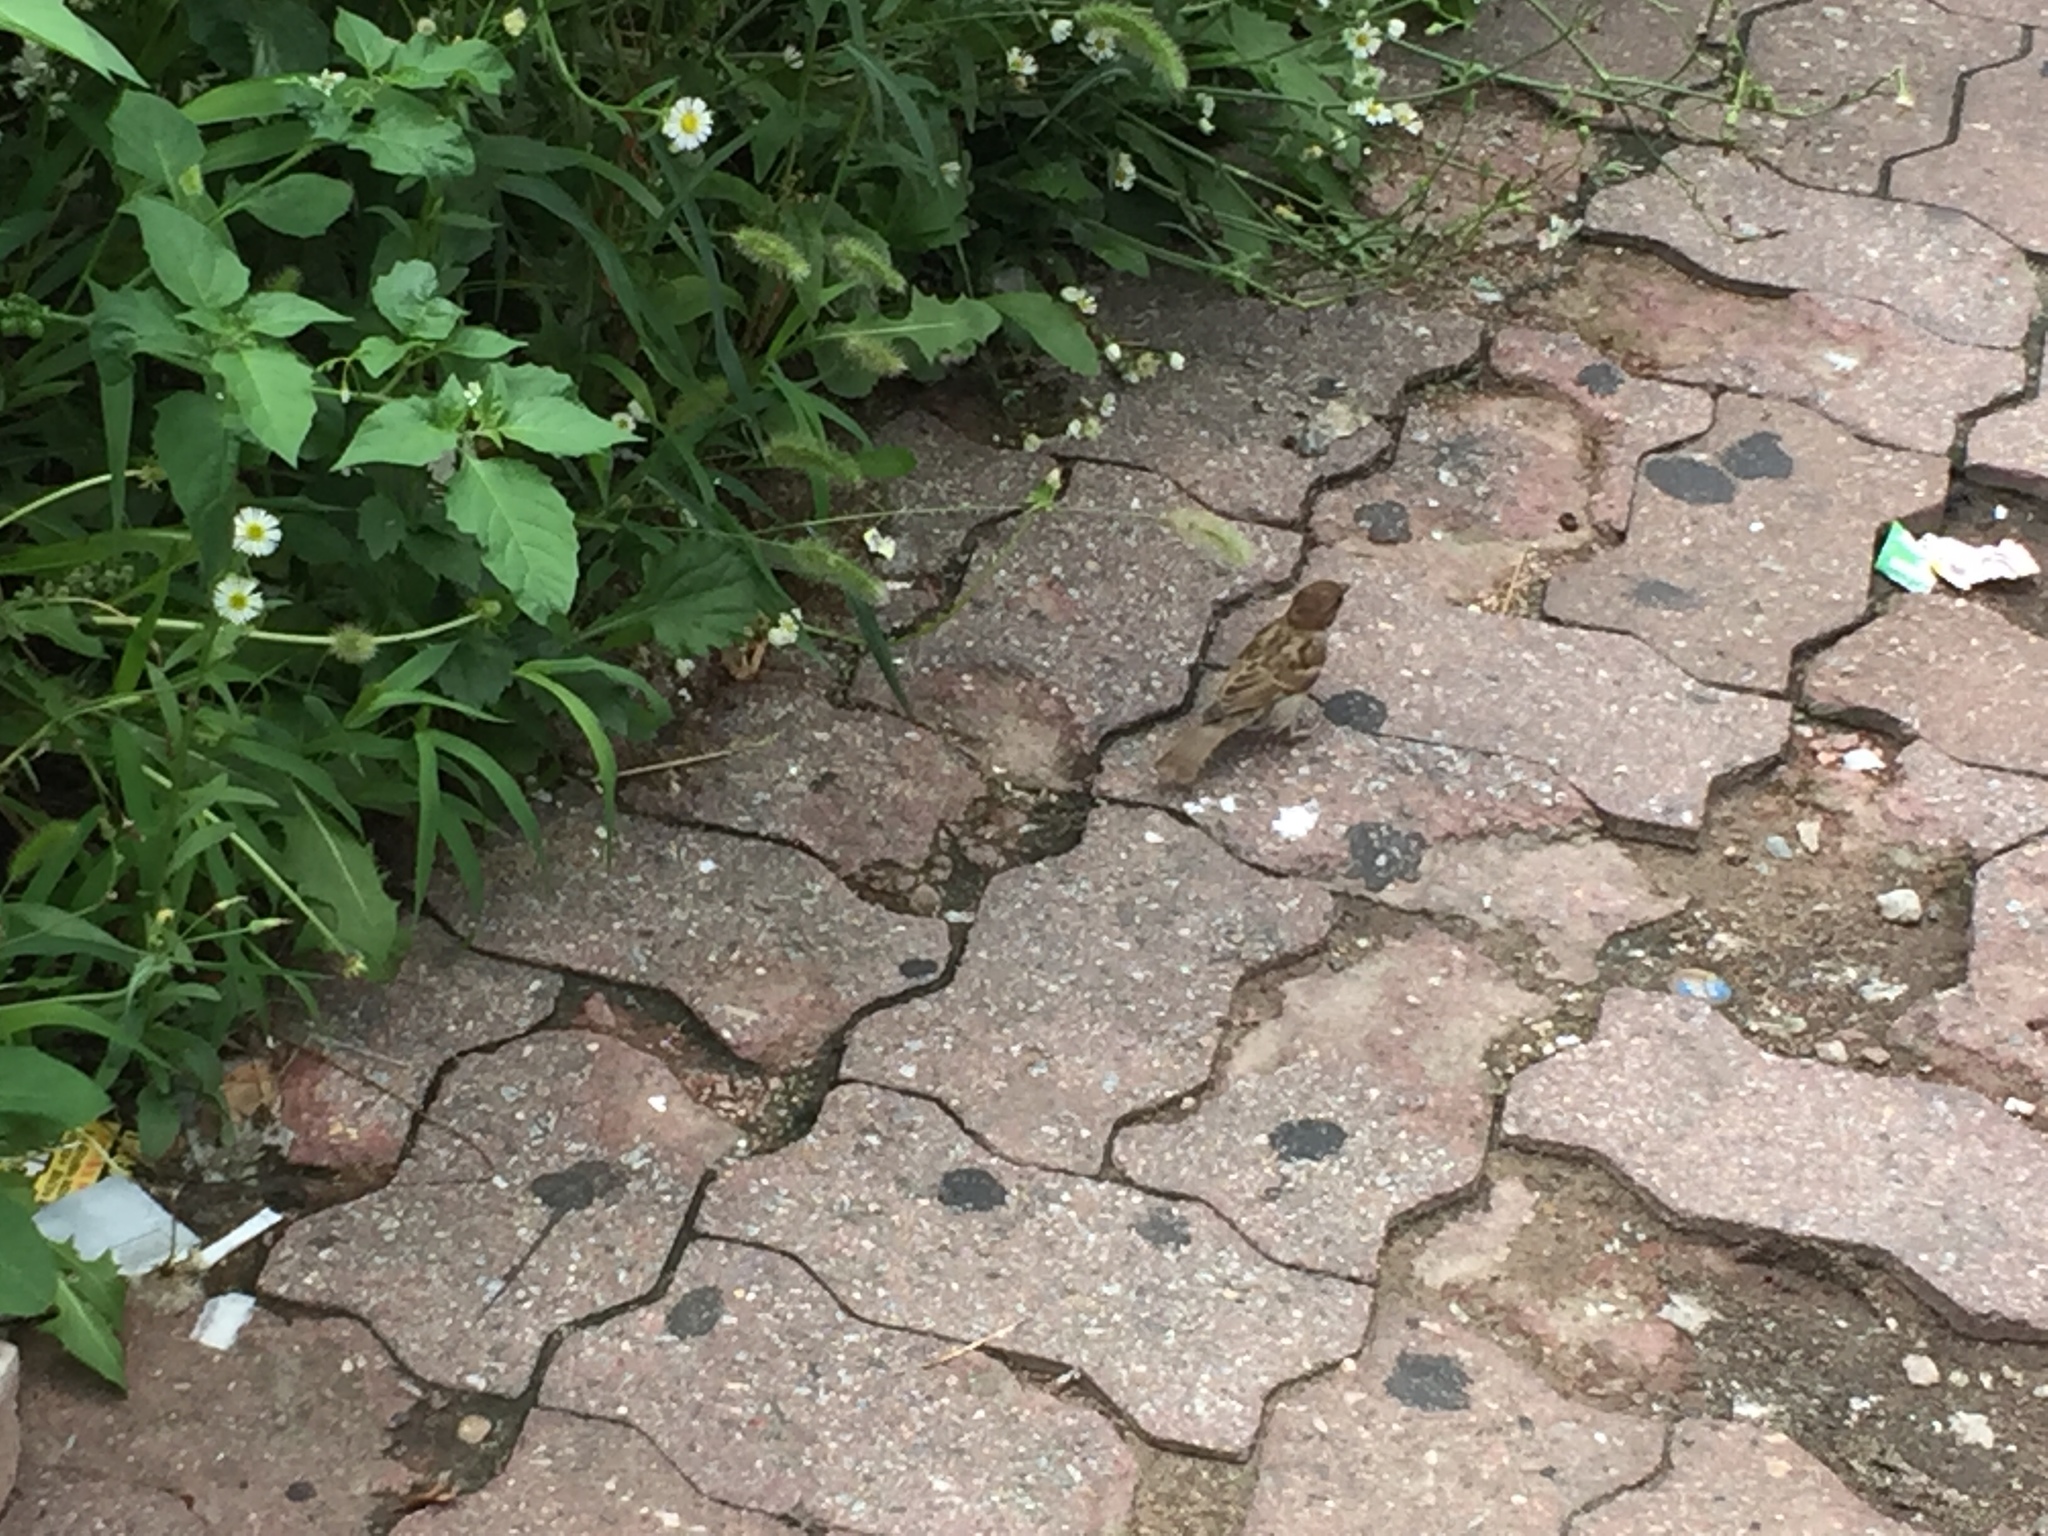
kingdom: Animalia
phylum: Chordata
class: Aves
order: Passeriformes
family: Passeridae
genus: Passer
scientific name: Passer montanus
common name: Eurasian tree sparrow
